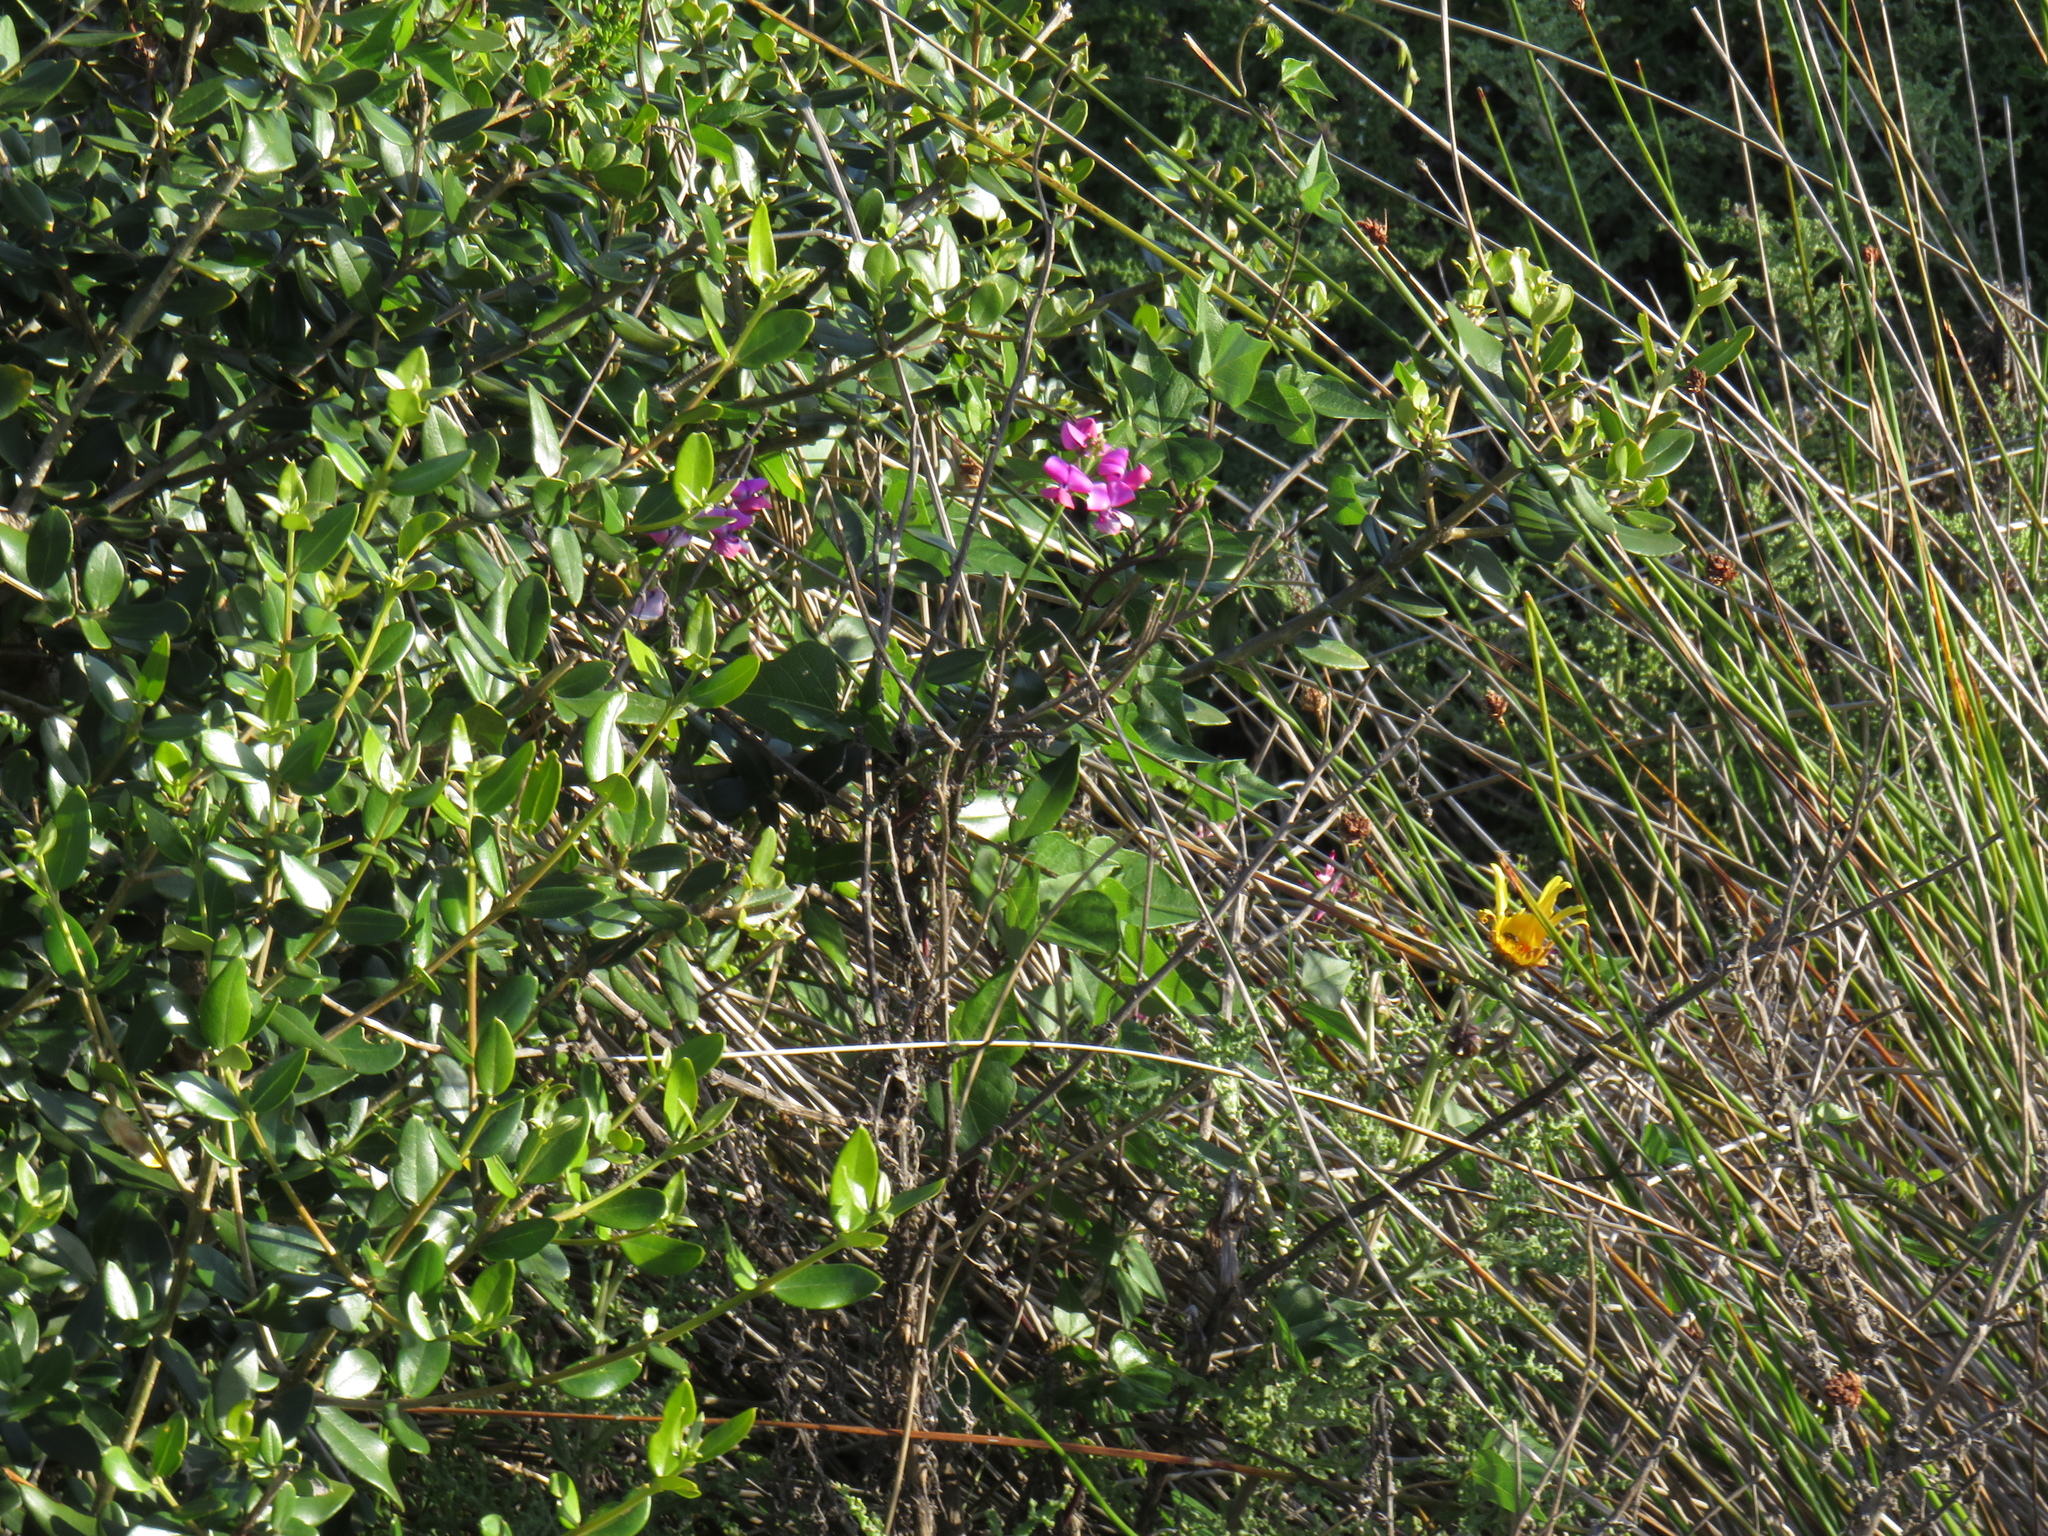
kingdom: Plantae
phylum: Tracheophyta
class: Magnoliopsida
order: Fabales
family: Fabaceae
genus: Dipogon
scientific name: Dipogon lignosus
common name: Okie bean
